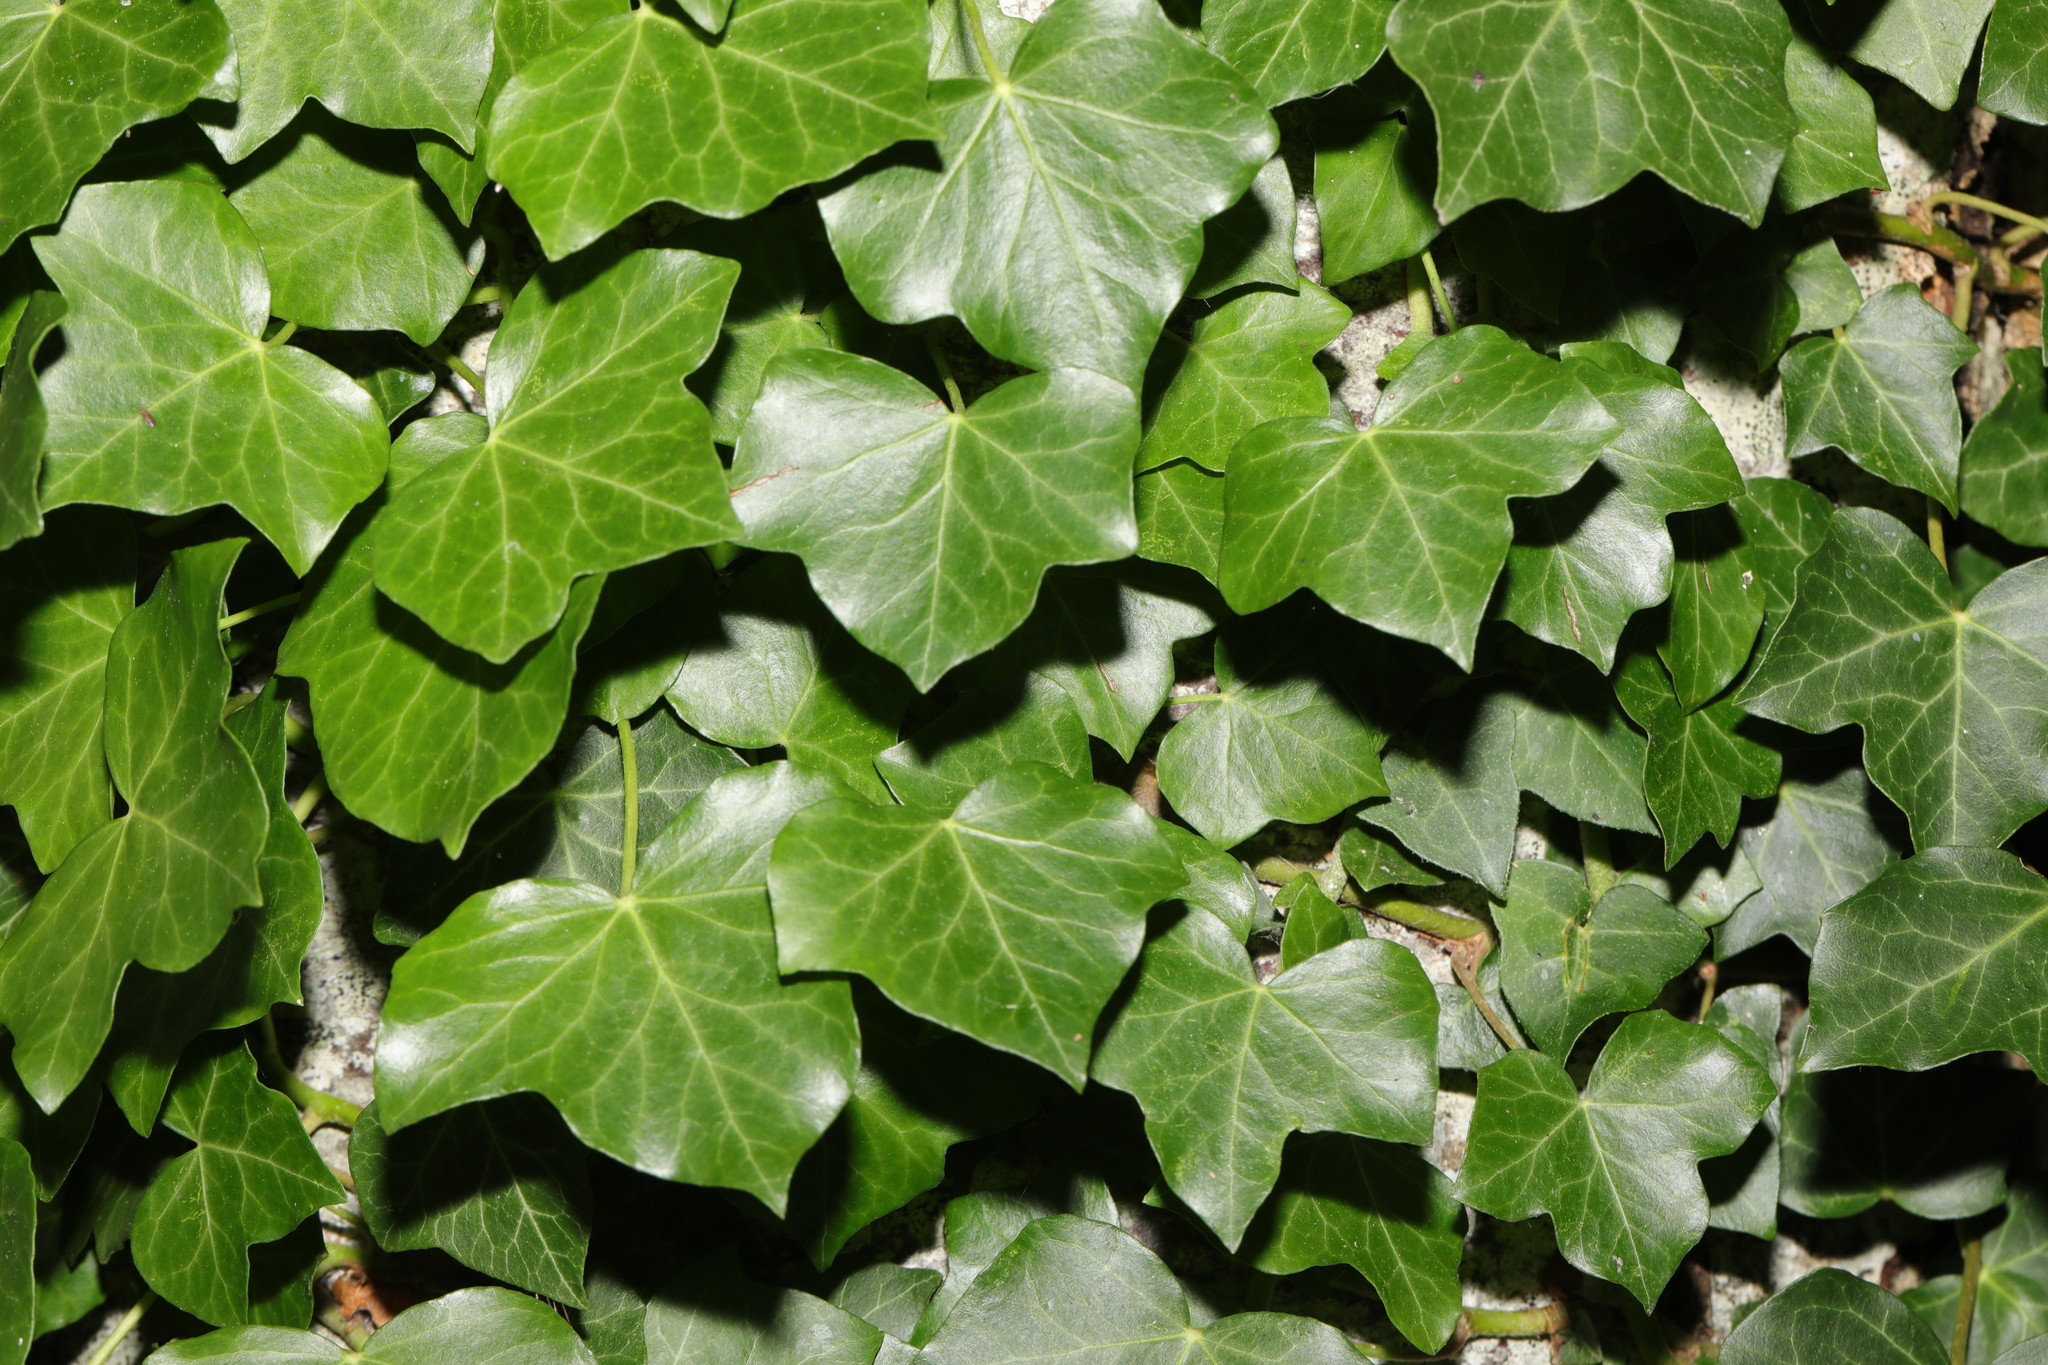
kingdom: Plantae
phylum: Tracheophyta
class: Magnoliopsida
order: Apiales
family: Araliaceae
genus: Hedera
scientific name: Hedera helix
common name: Ivy
